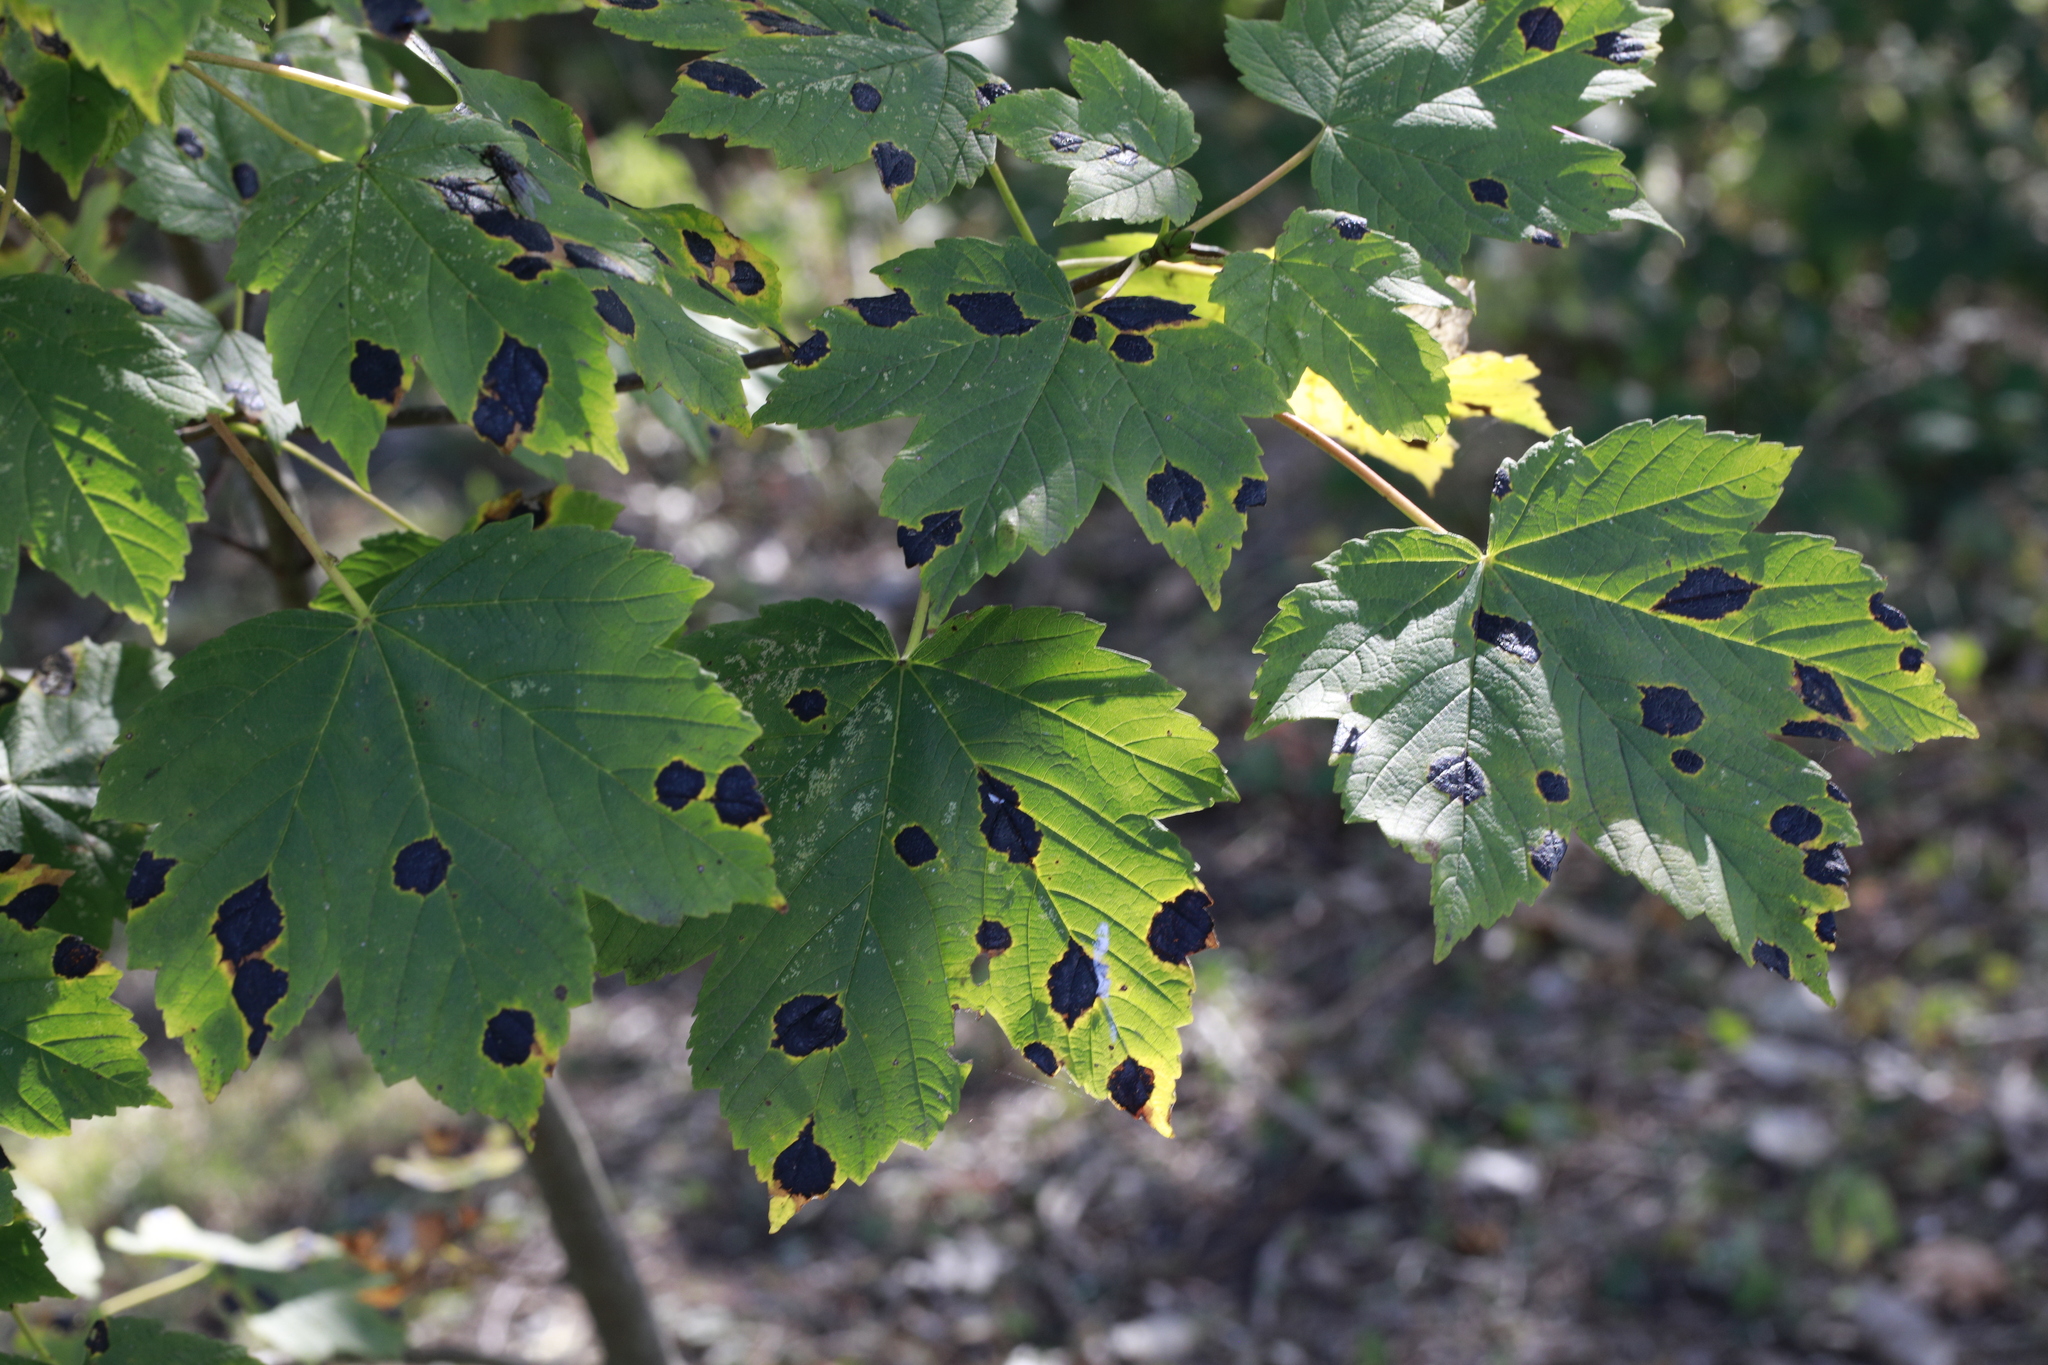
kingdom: Fungi
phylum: Ascomycota
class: Leotiomycetes
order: Rhytismatales
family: Rhytismataceae
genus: Rhytisma
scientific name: Rhytisma acerinum
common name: European tar spot
